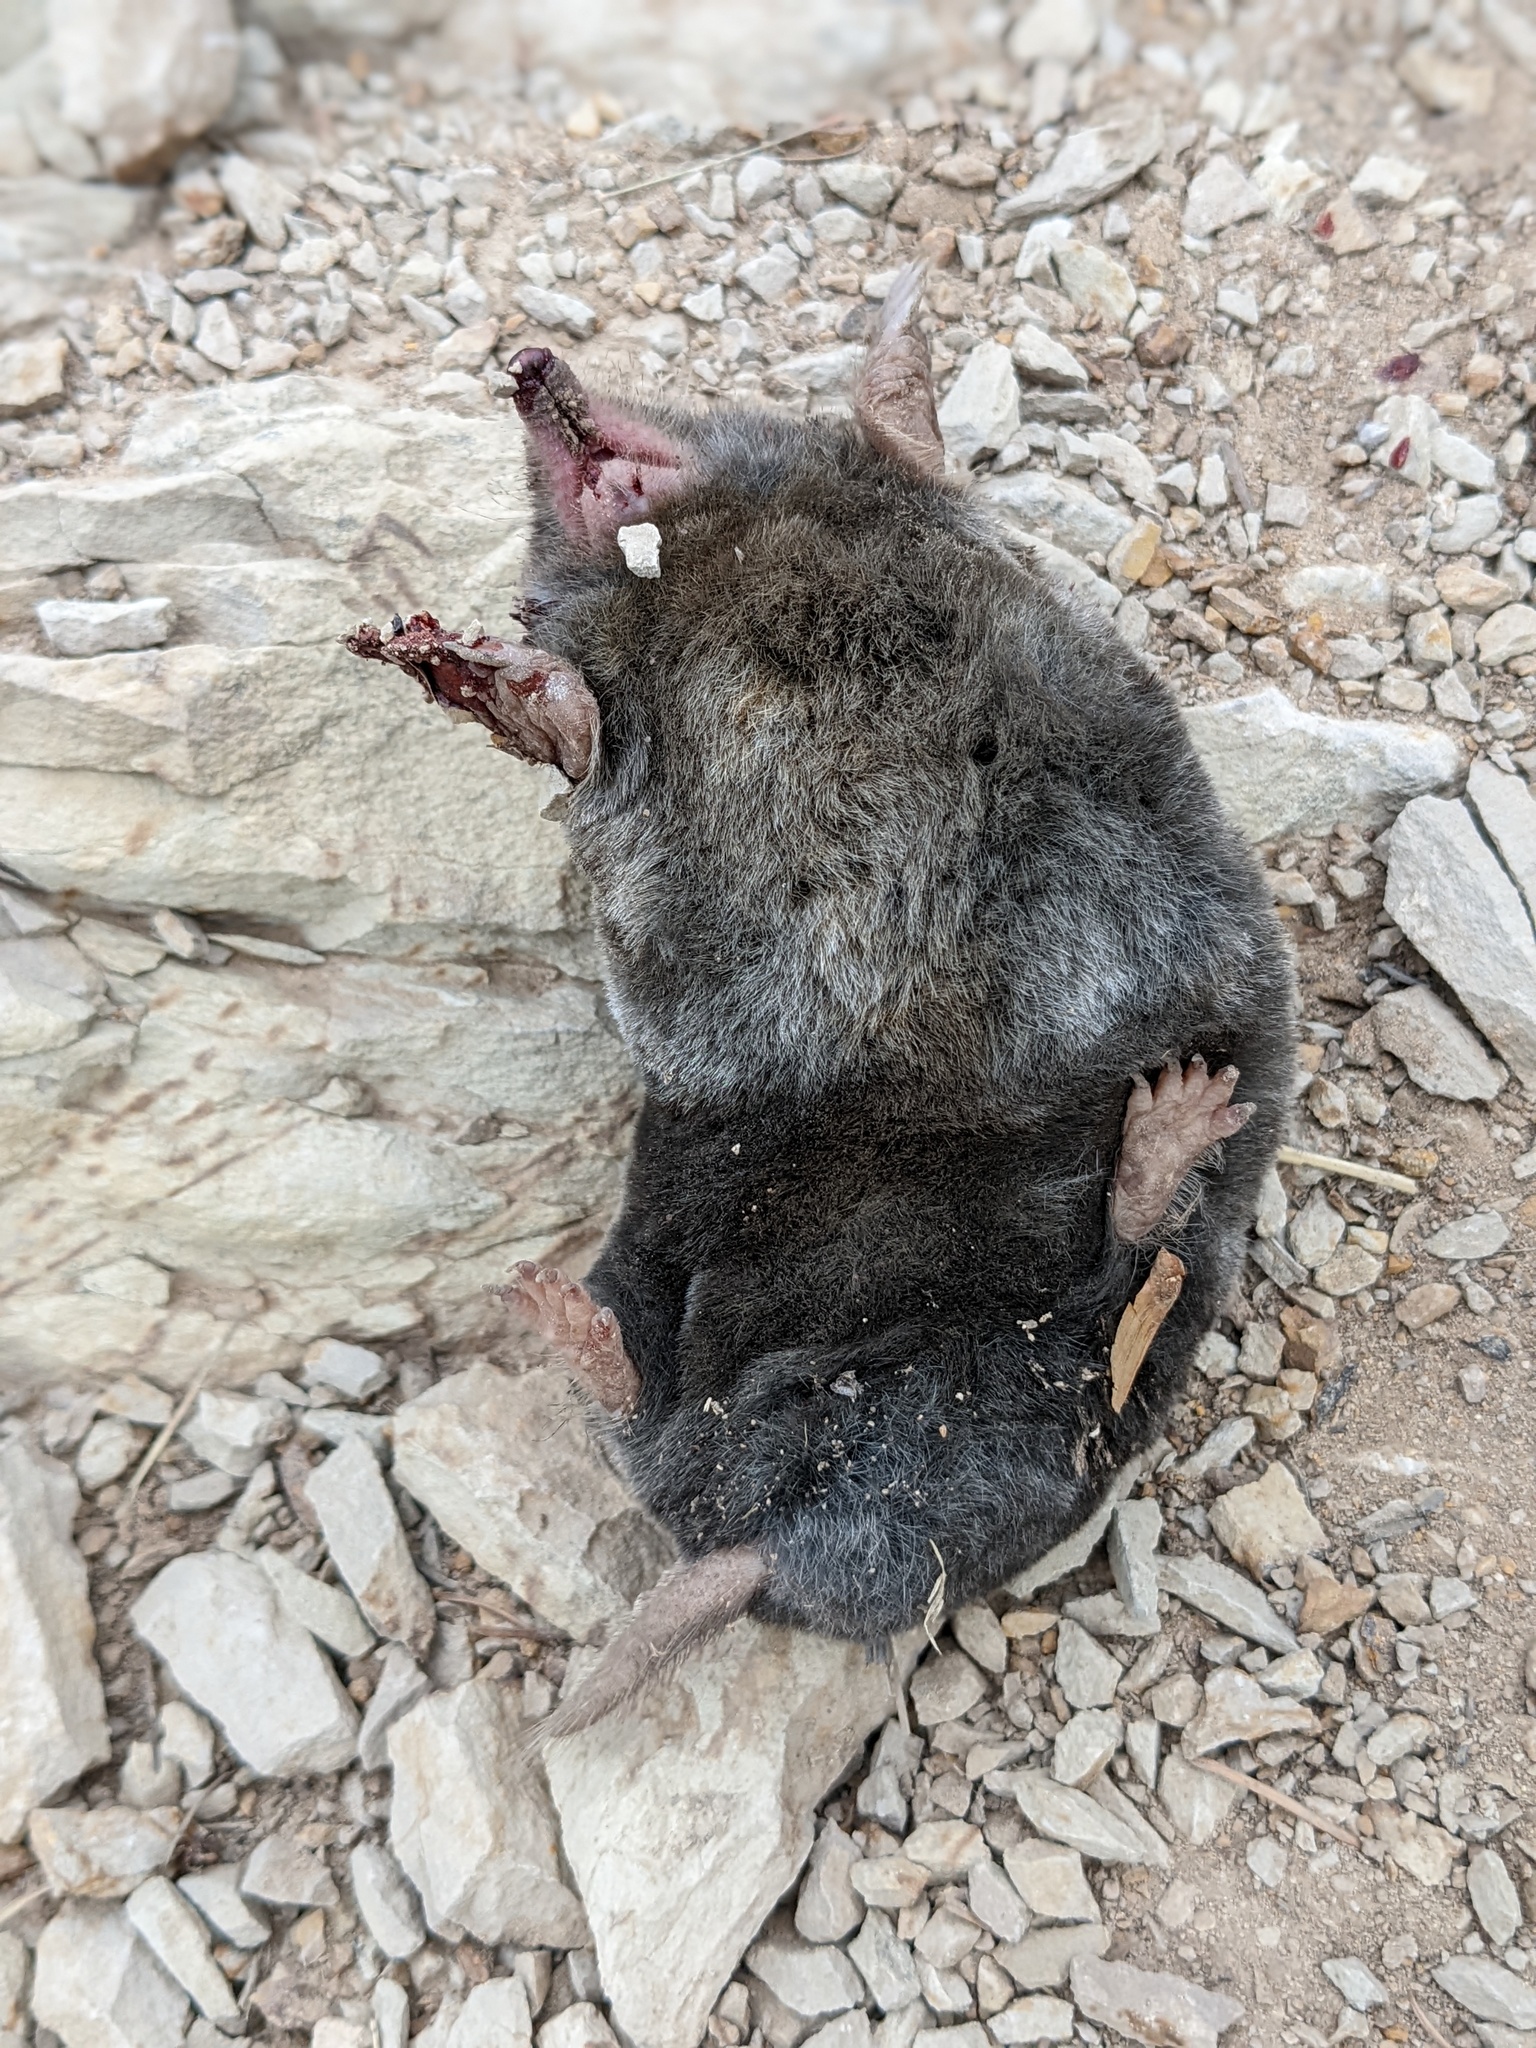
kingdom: Animalia
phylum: Chordata
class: Mammalia
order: Soricomorpha
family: Talpidae
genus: Scapanus
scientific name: Scapanus latimanus
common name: Broad-footed mole
